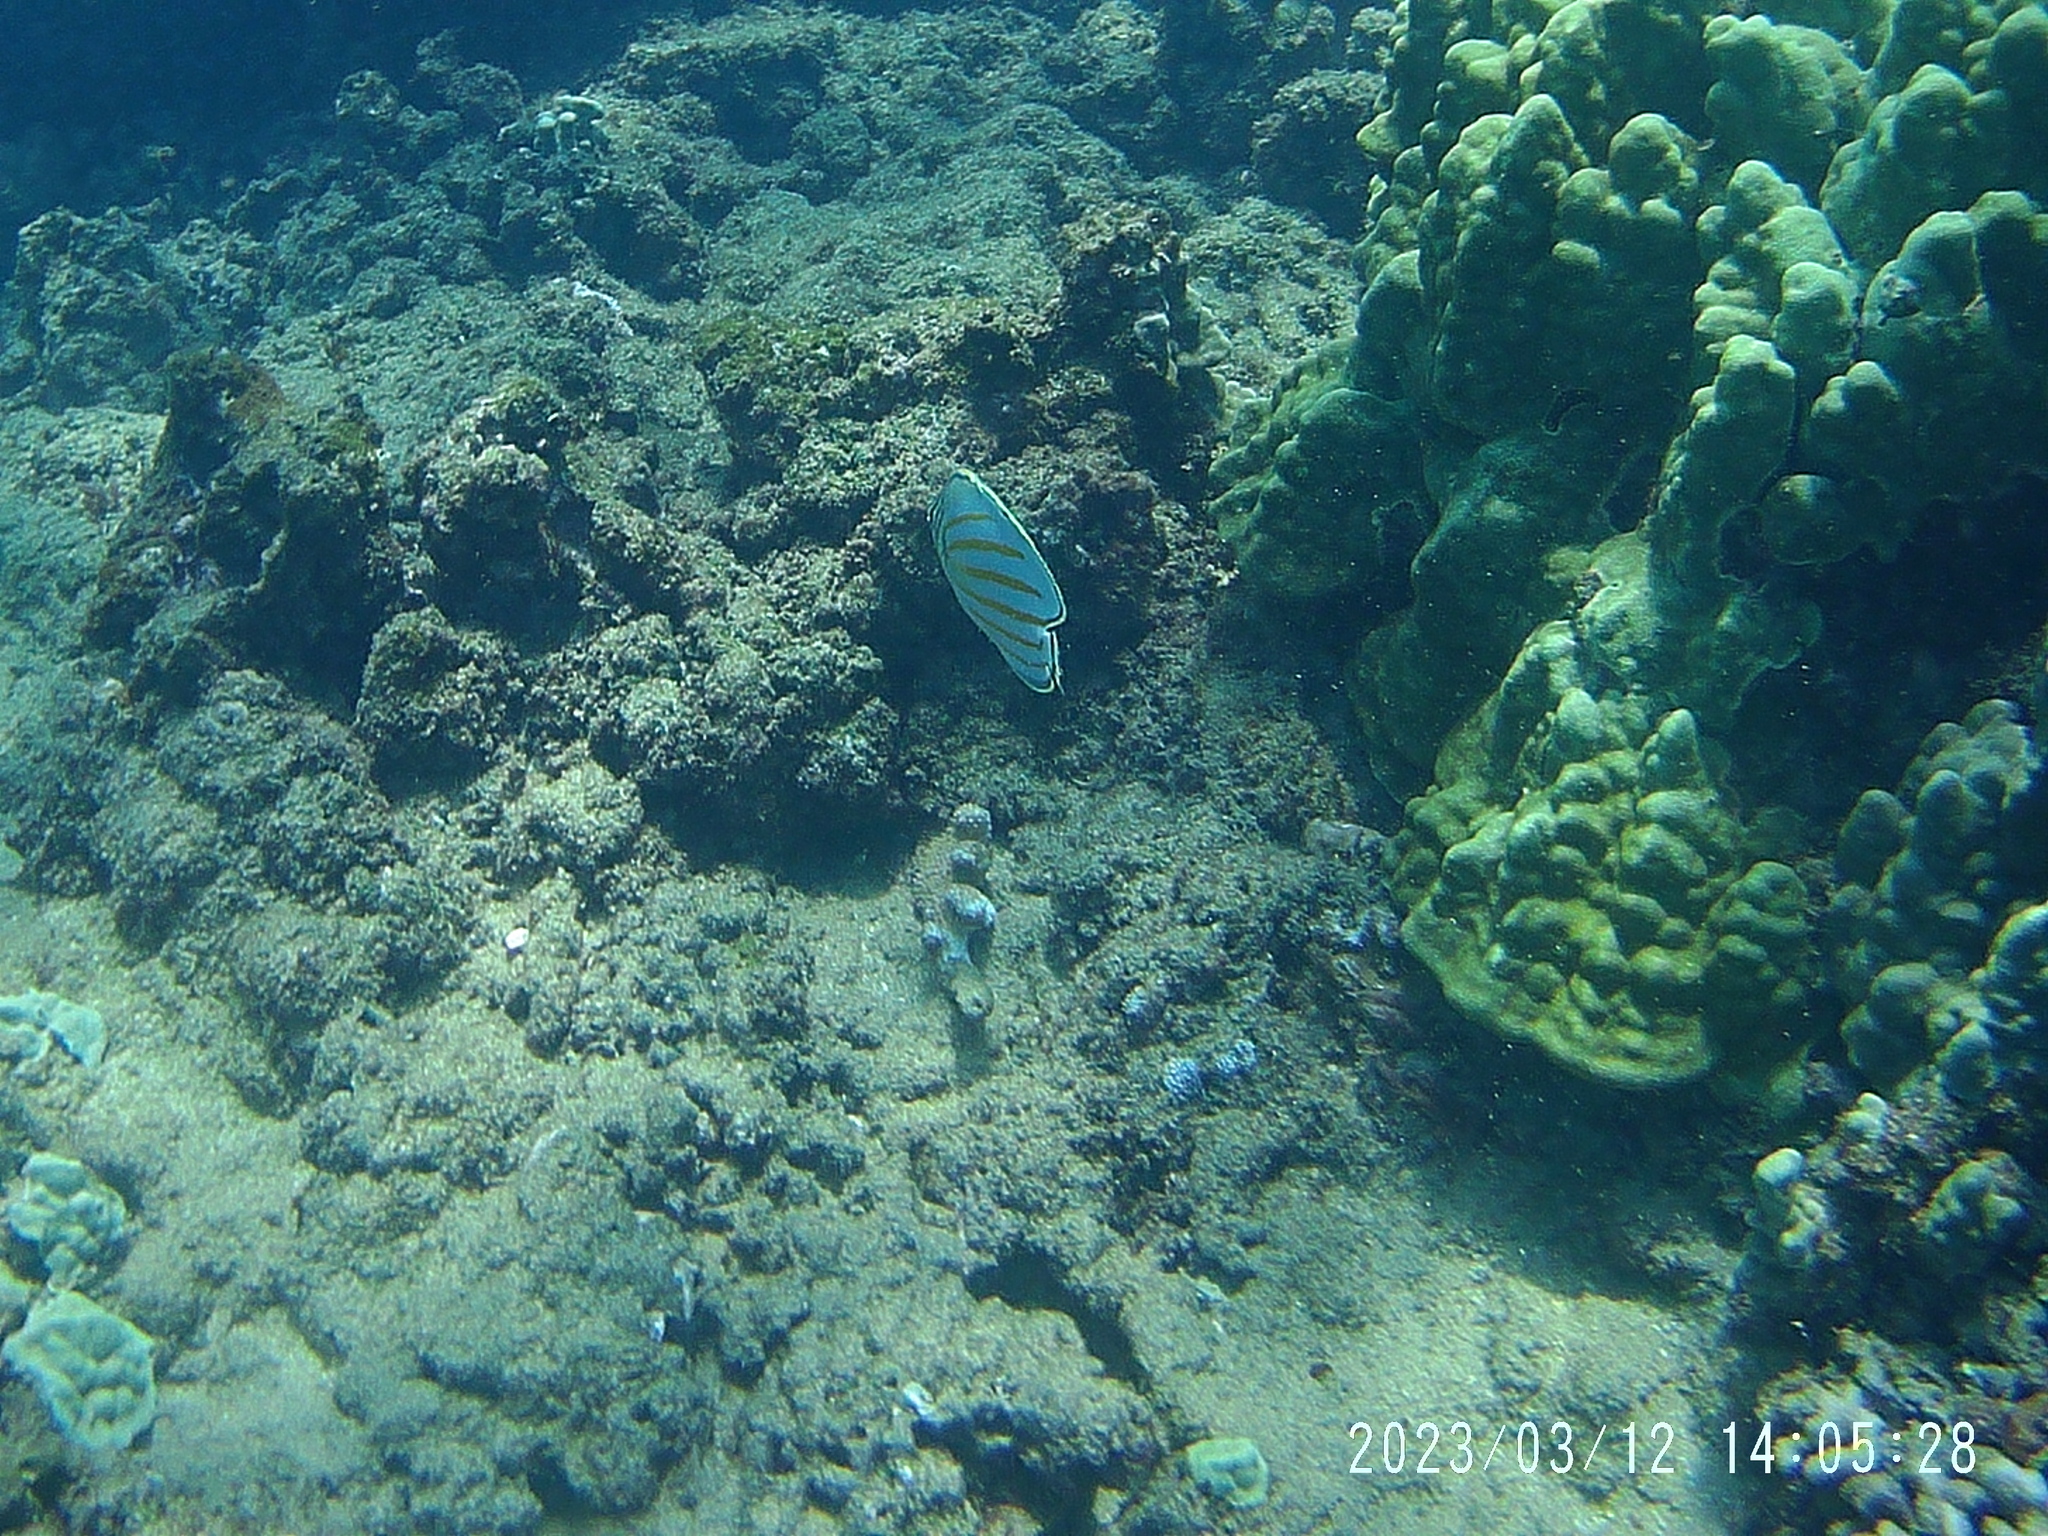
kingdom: Animalia
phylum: Chordata
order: Perciformes
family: Chaetodontidae
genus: Chaetodon
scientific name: Chaetodon ornatissimus
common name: Ornate butterflyfish
